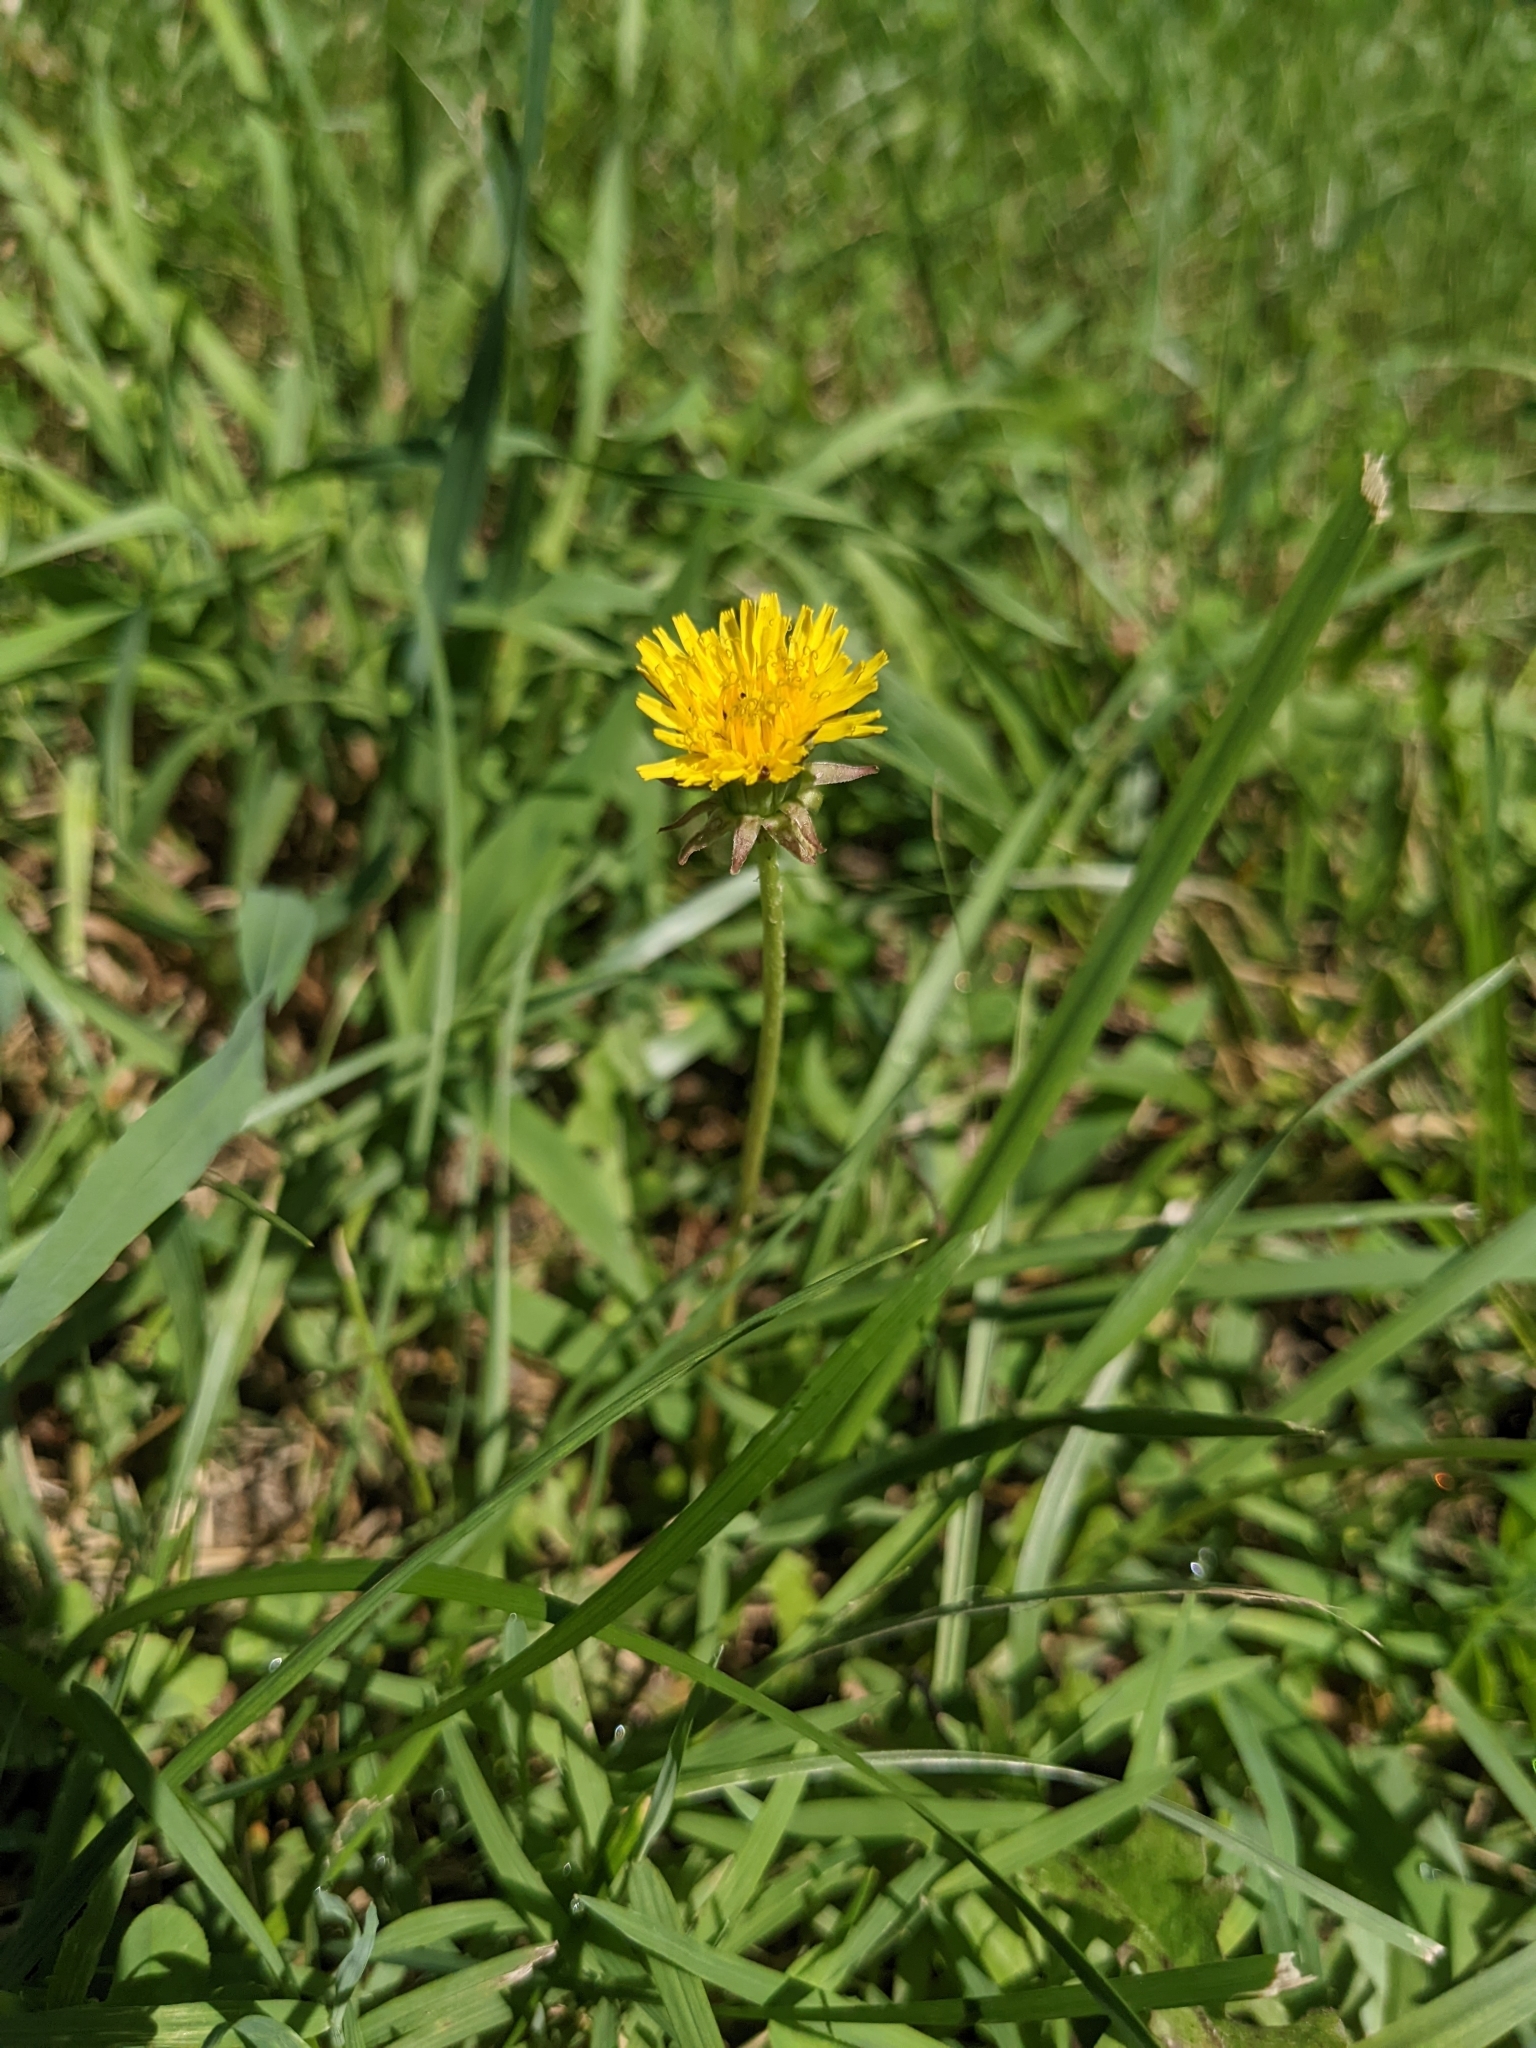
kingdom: Plantae
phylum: Tracheophyta
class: Magnoliopsida
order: Asterales
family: Asteraceae
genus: Taraxacum
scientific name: Taraxacum
